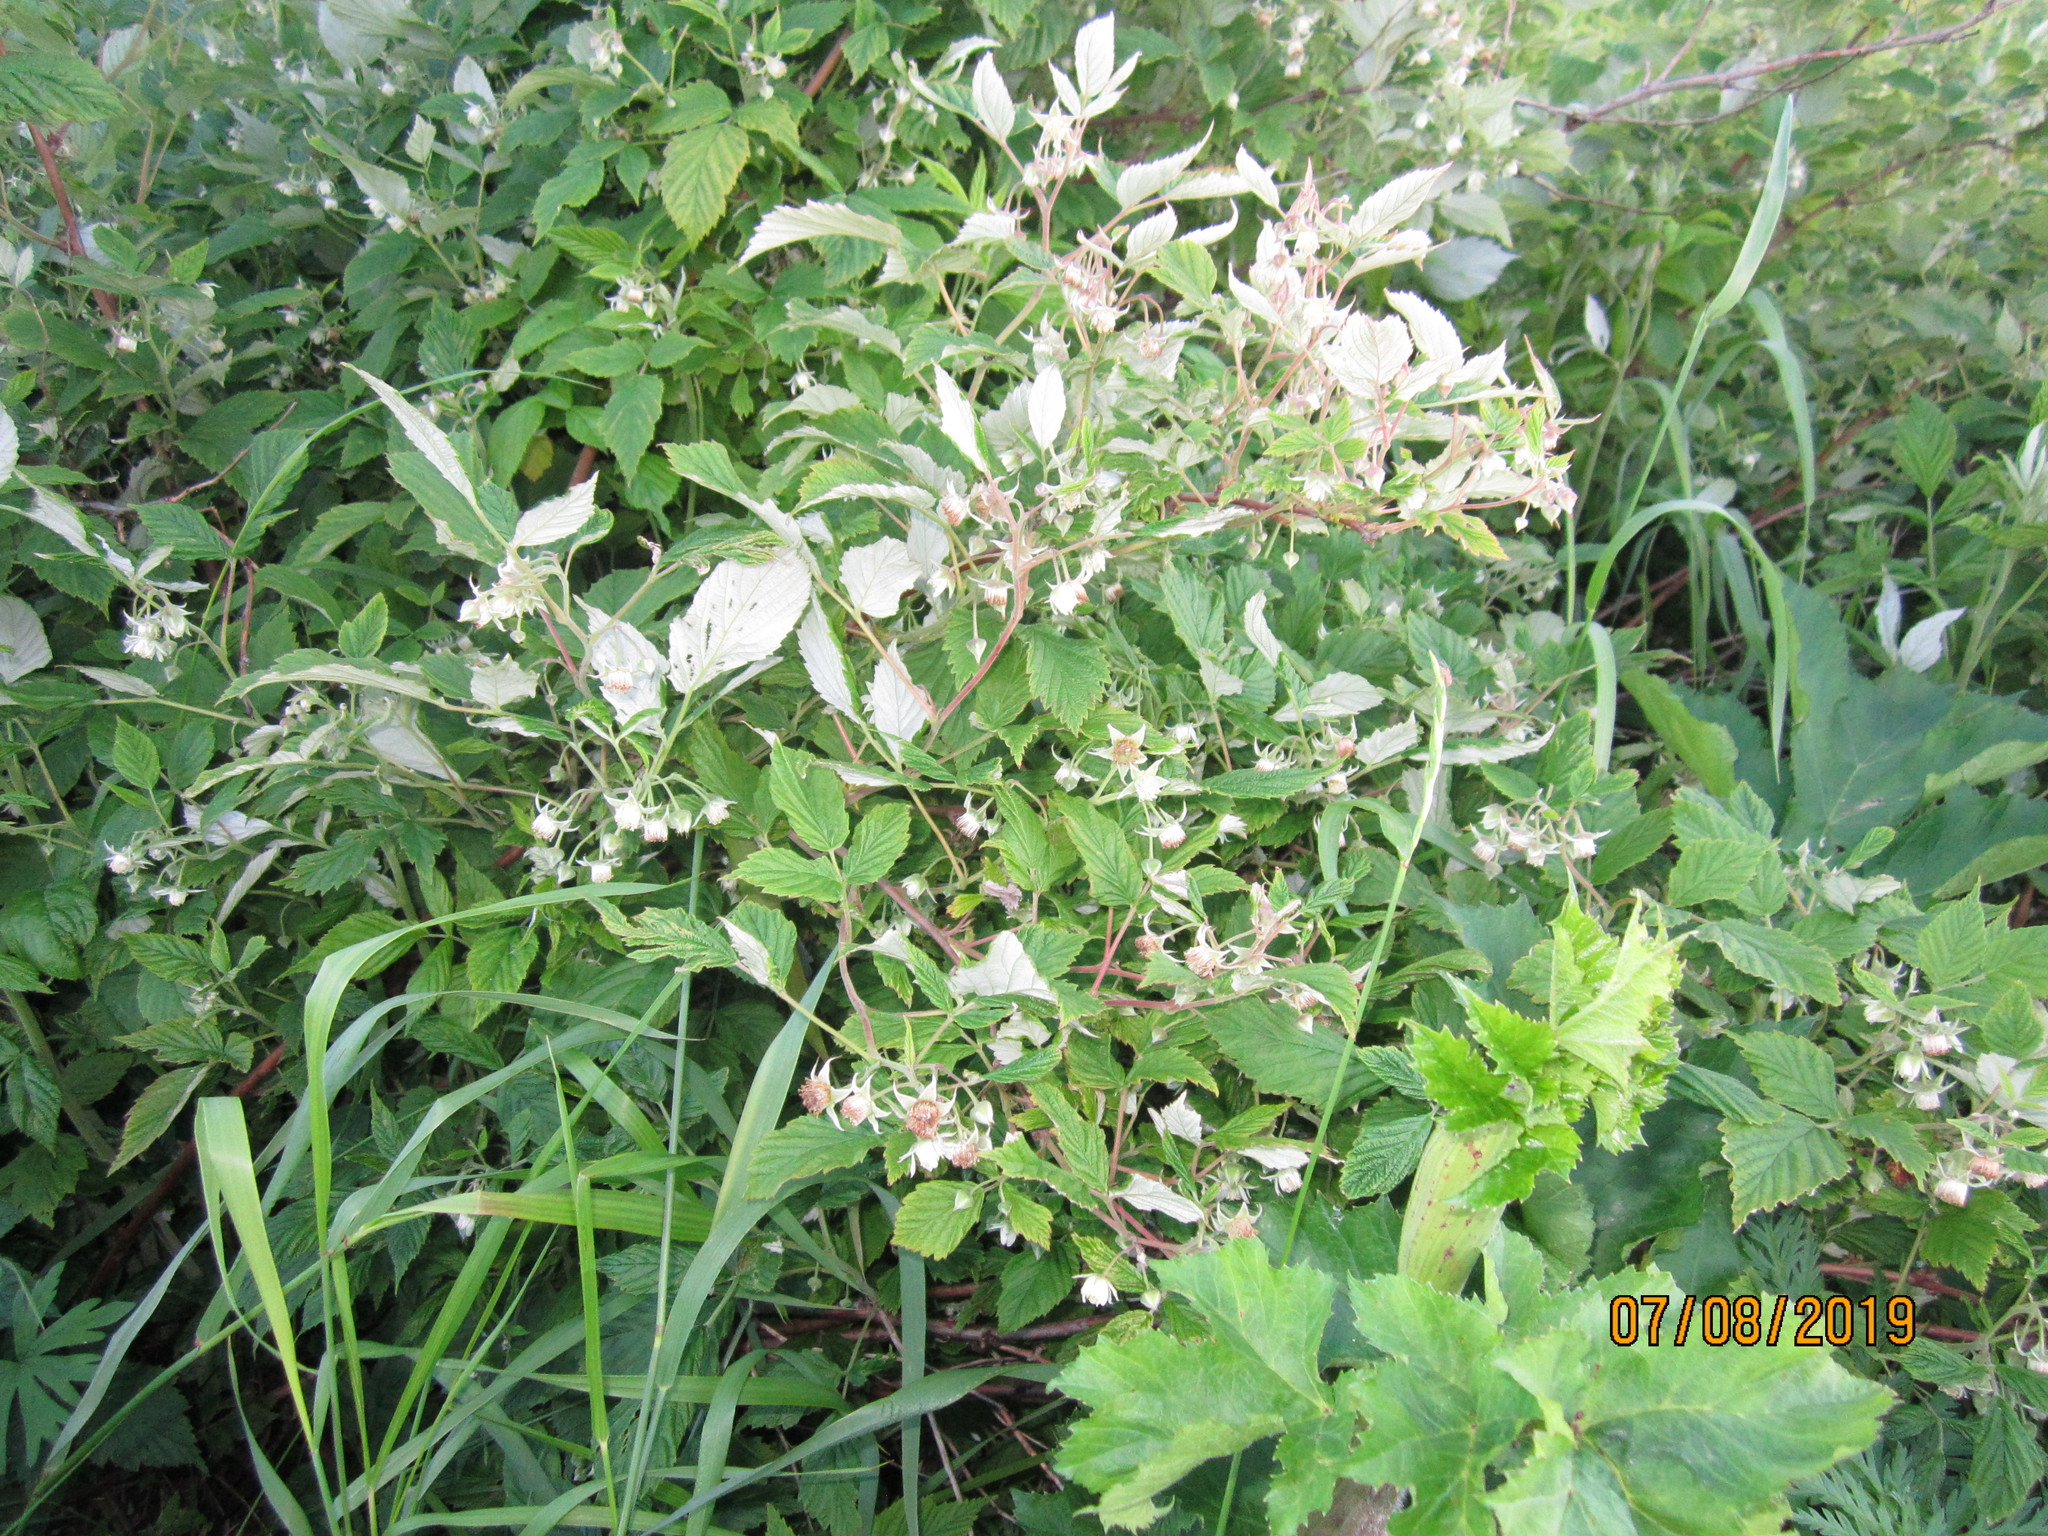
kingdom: Plantae
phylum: Tracheophyta
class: Magnoliopsida
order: Rosales
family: Rosaceae
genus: Rubus
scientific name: Rubus idaeus
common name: Raspberry
